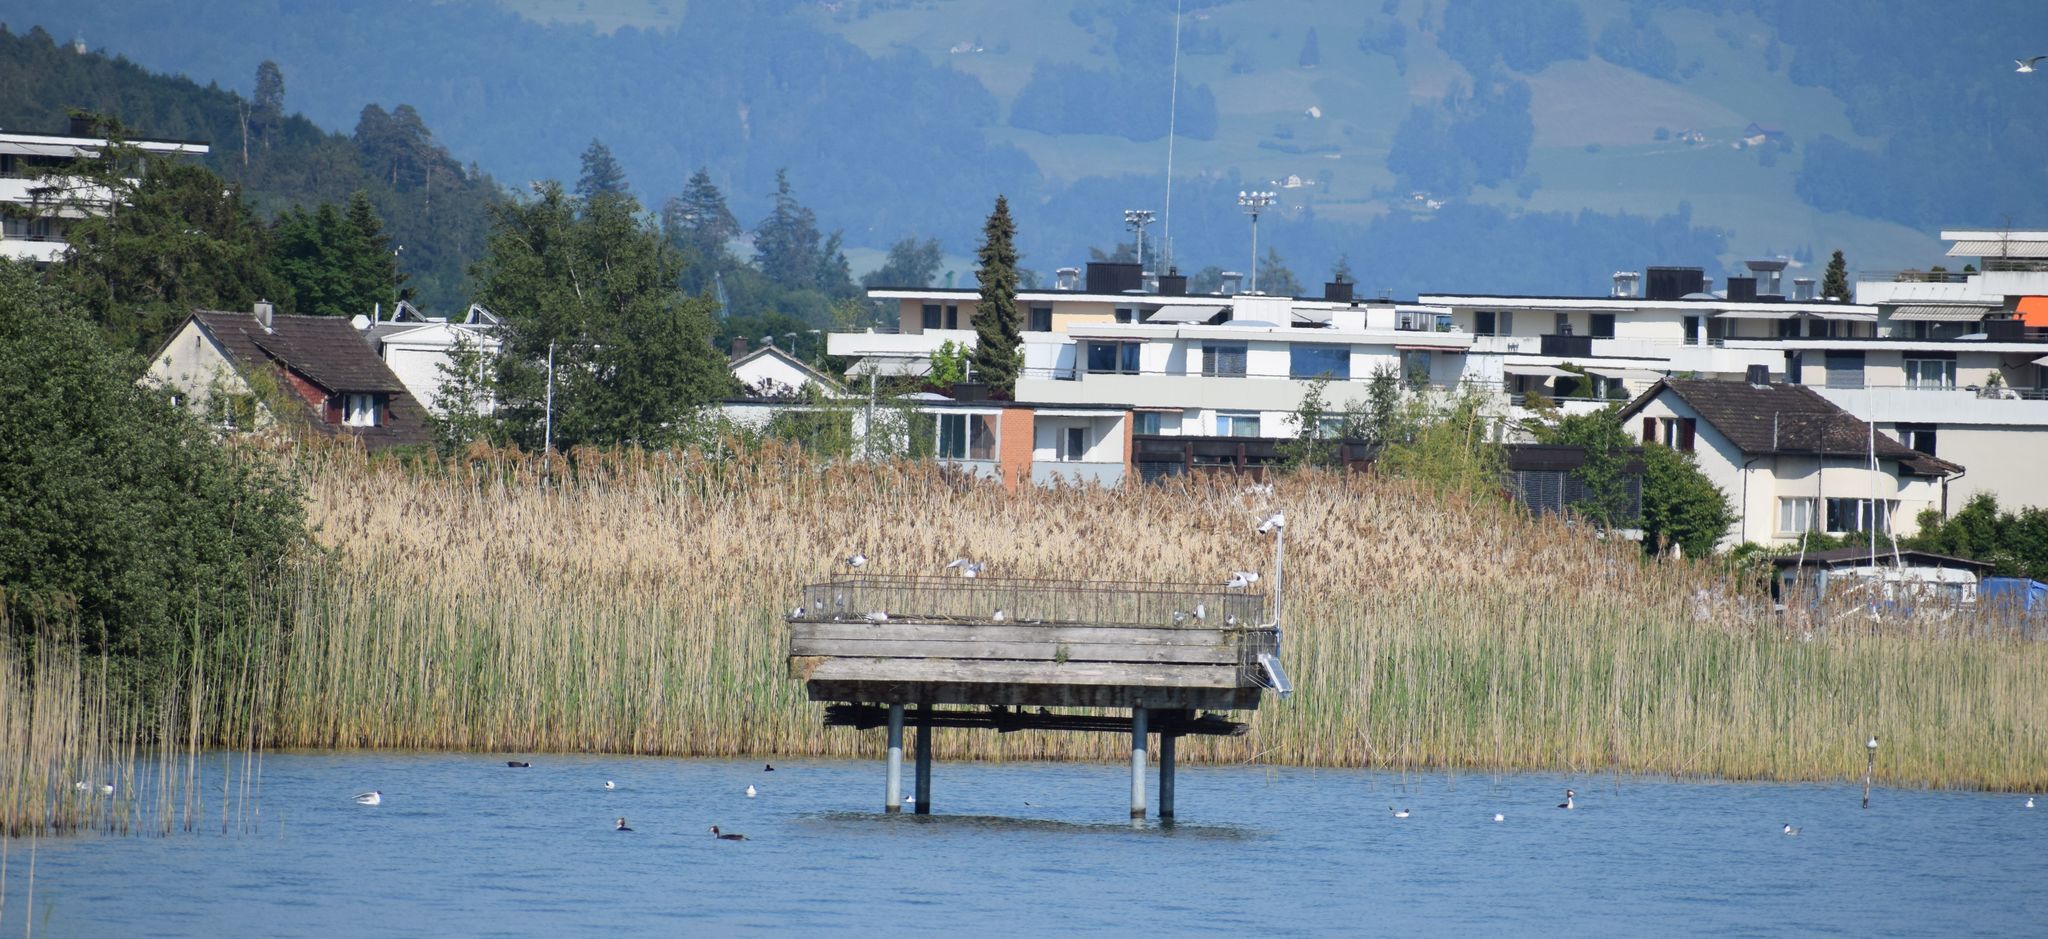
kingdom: Animalia
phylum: Chordata
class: Aves
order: Podicipediformes
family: Podicipedidae
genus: Podiceps
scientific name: Podiceps cristatus
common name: Great crested grebe
